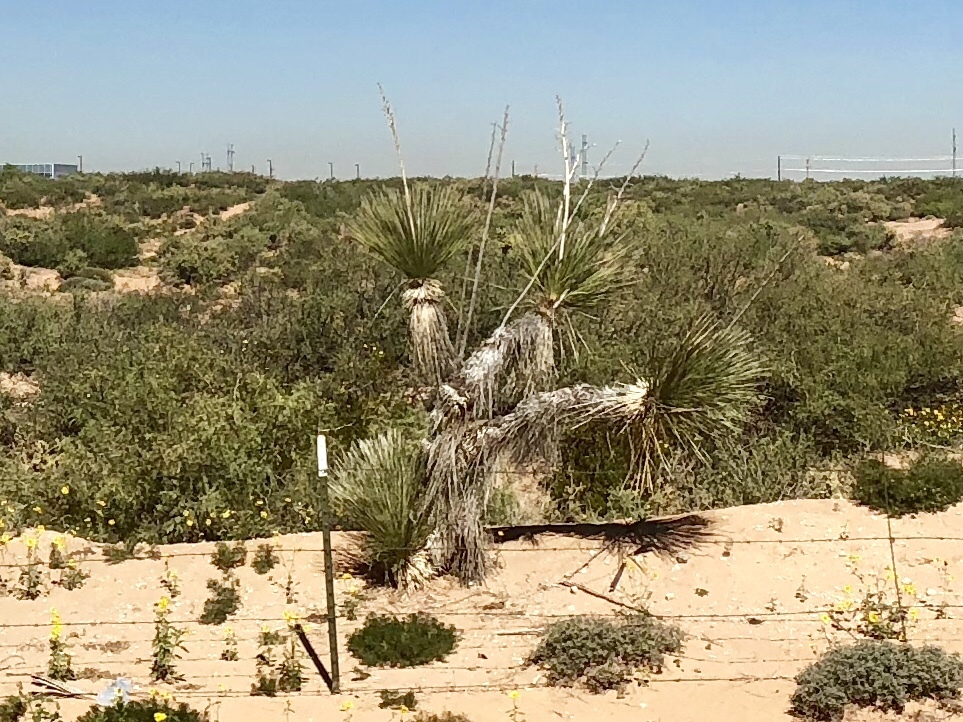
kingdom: Plantae
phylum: Tracheophyta
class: Liliopsida
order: Asparagales
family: Asparagaceae
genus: Yucca
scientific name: Yucca elata
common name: Palmella
